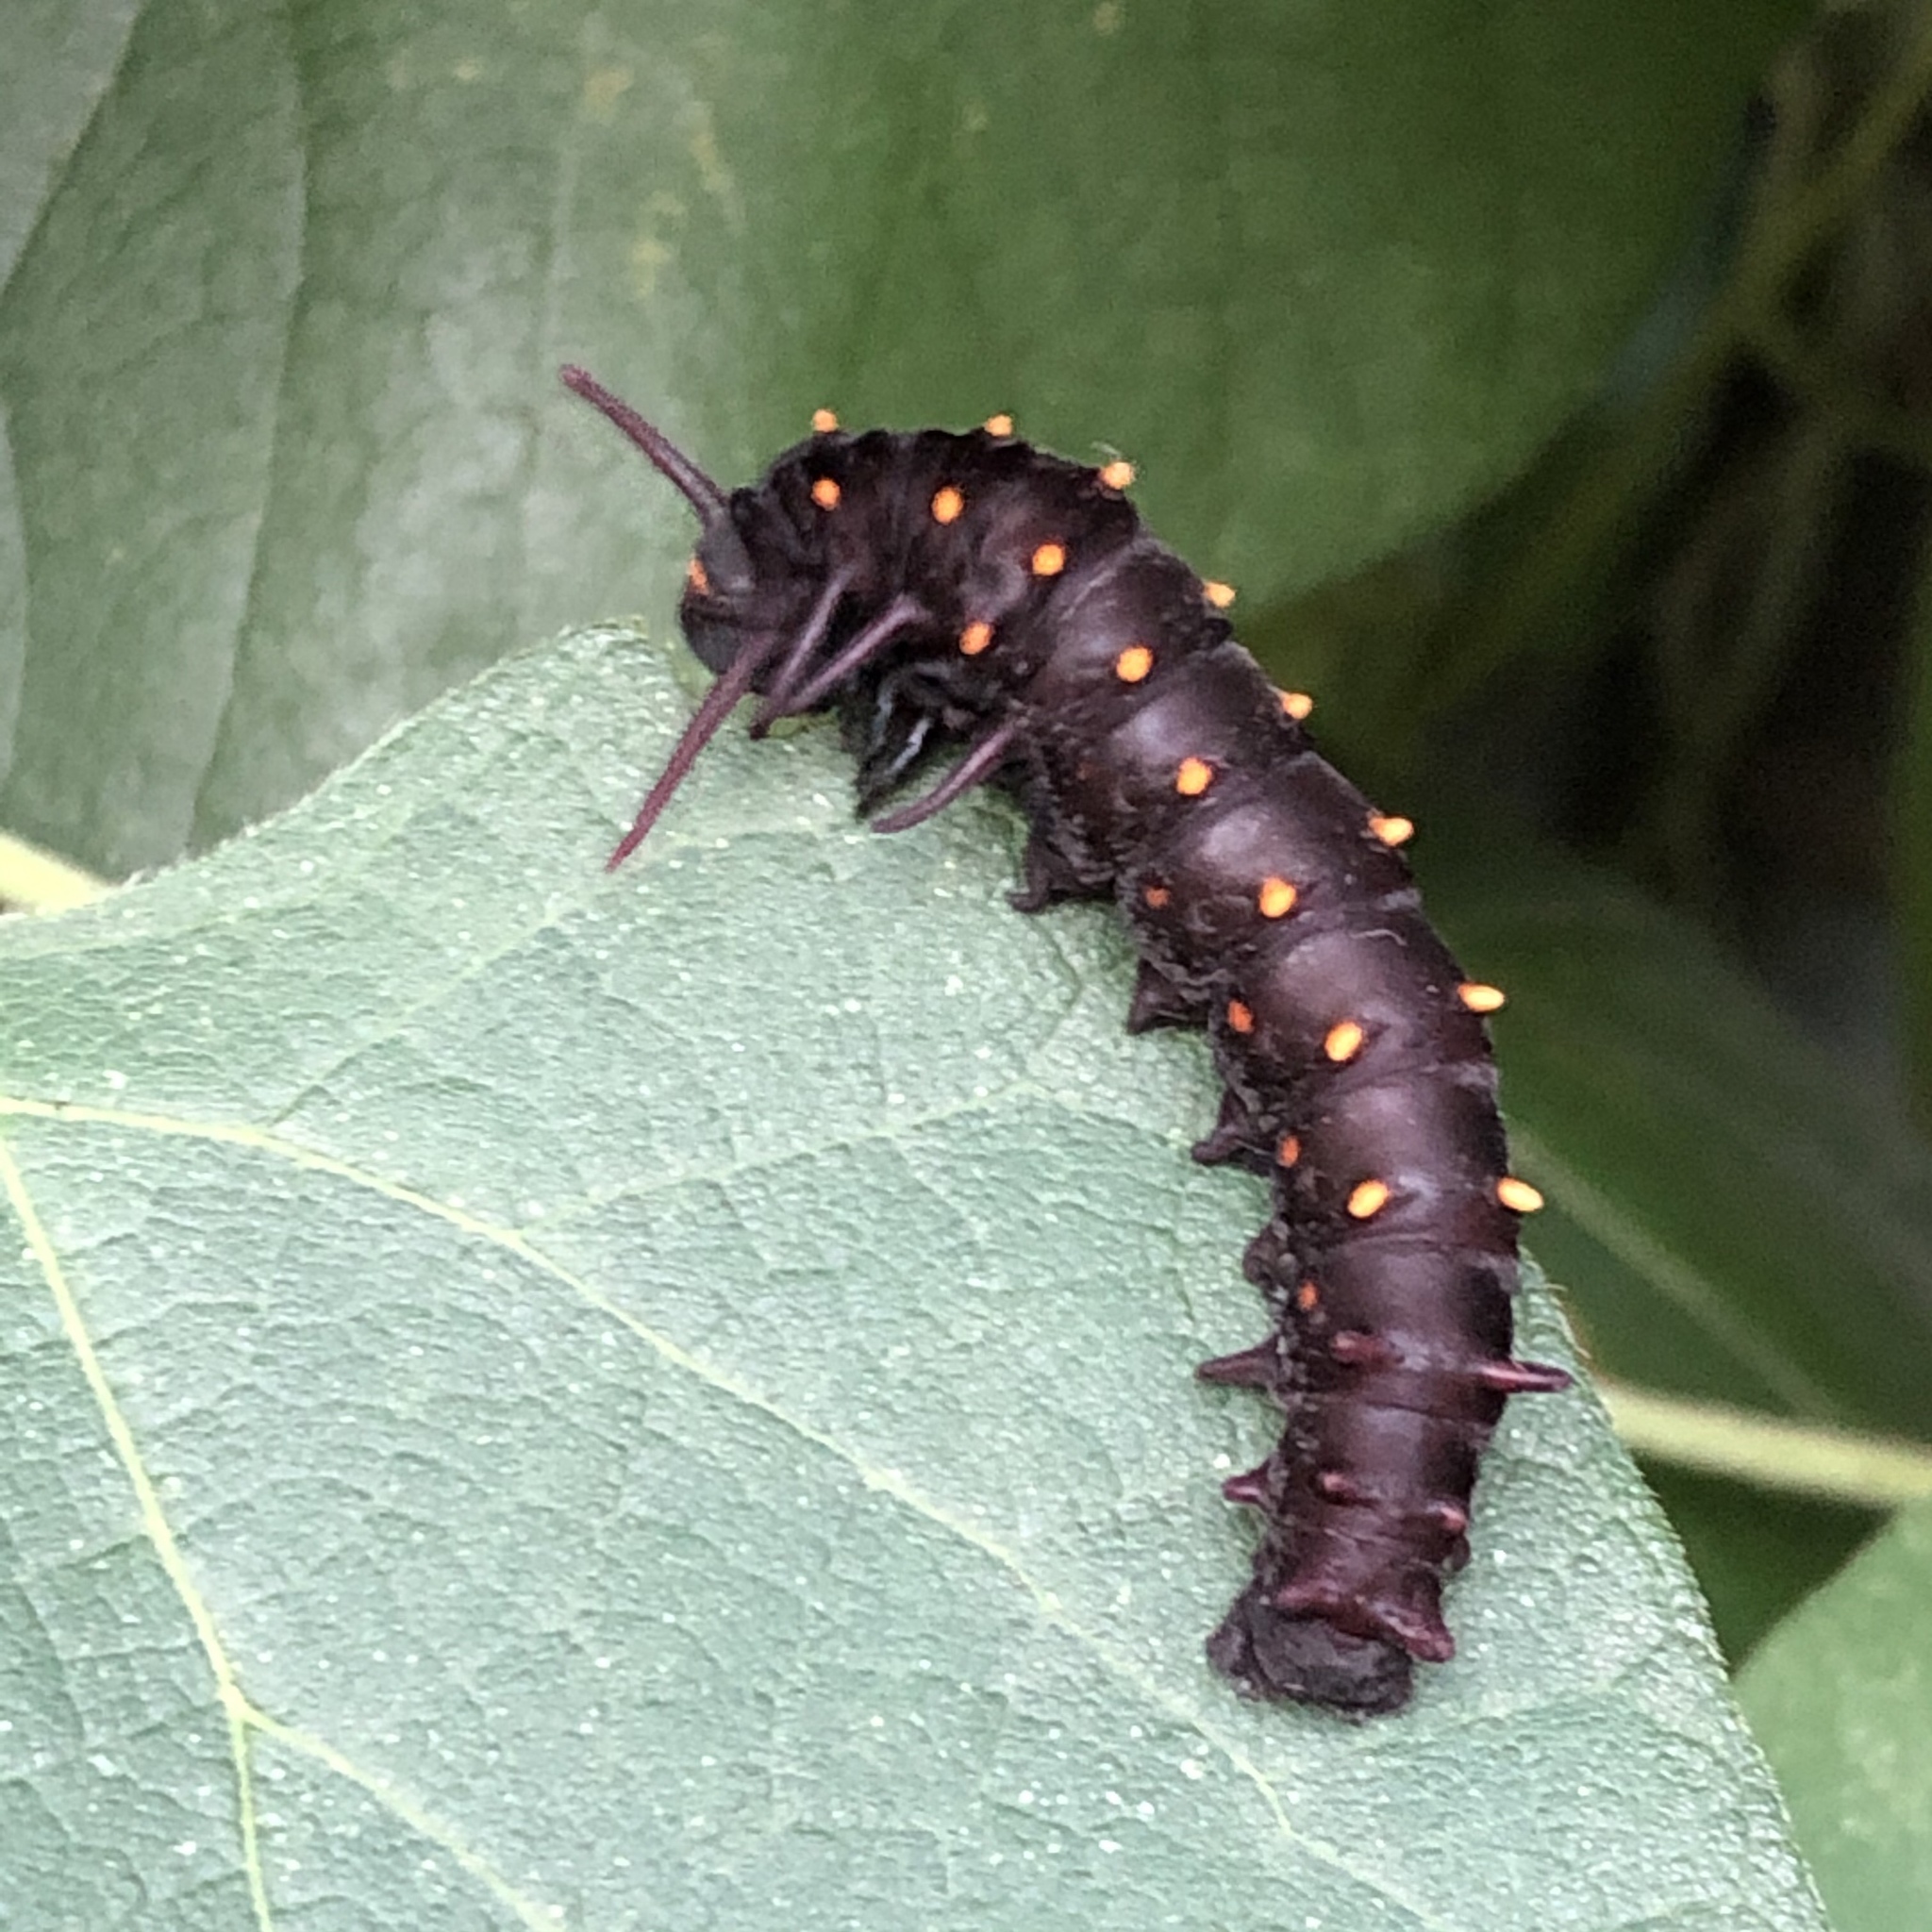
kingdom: Animalia
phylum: Arthropoda
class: Insecta
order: Lepidoptera
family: Papilionidae
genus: Battus
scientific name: Battus philenor
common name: Pipevine swallowtail
